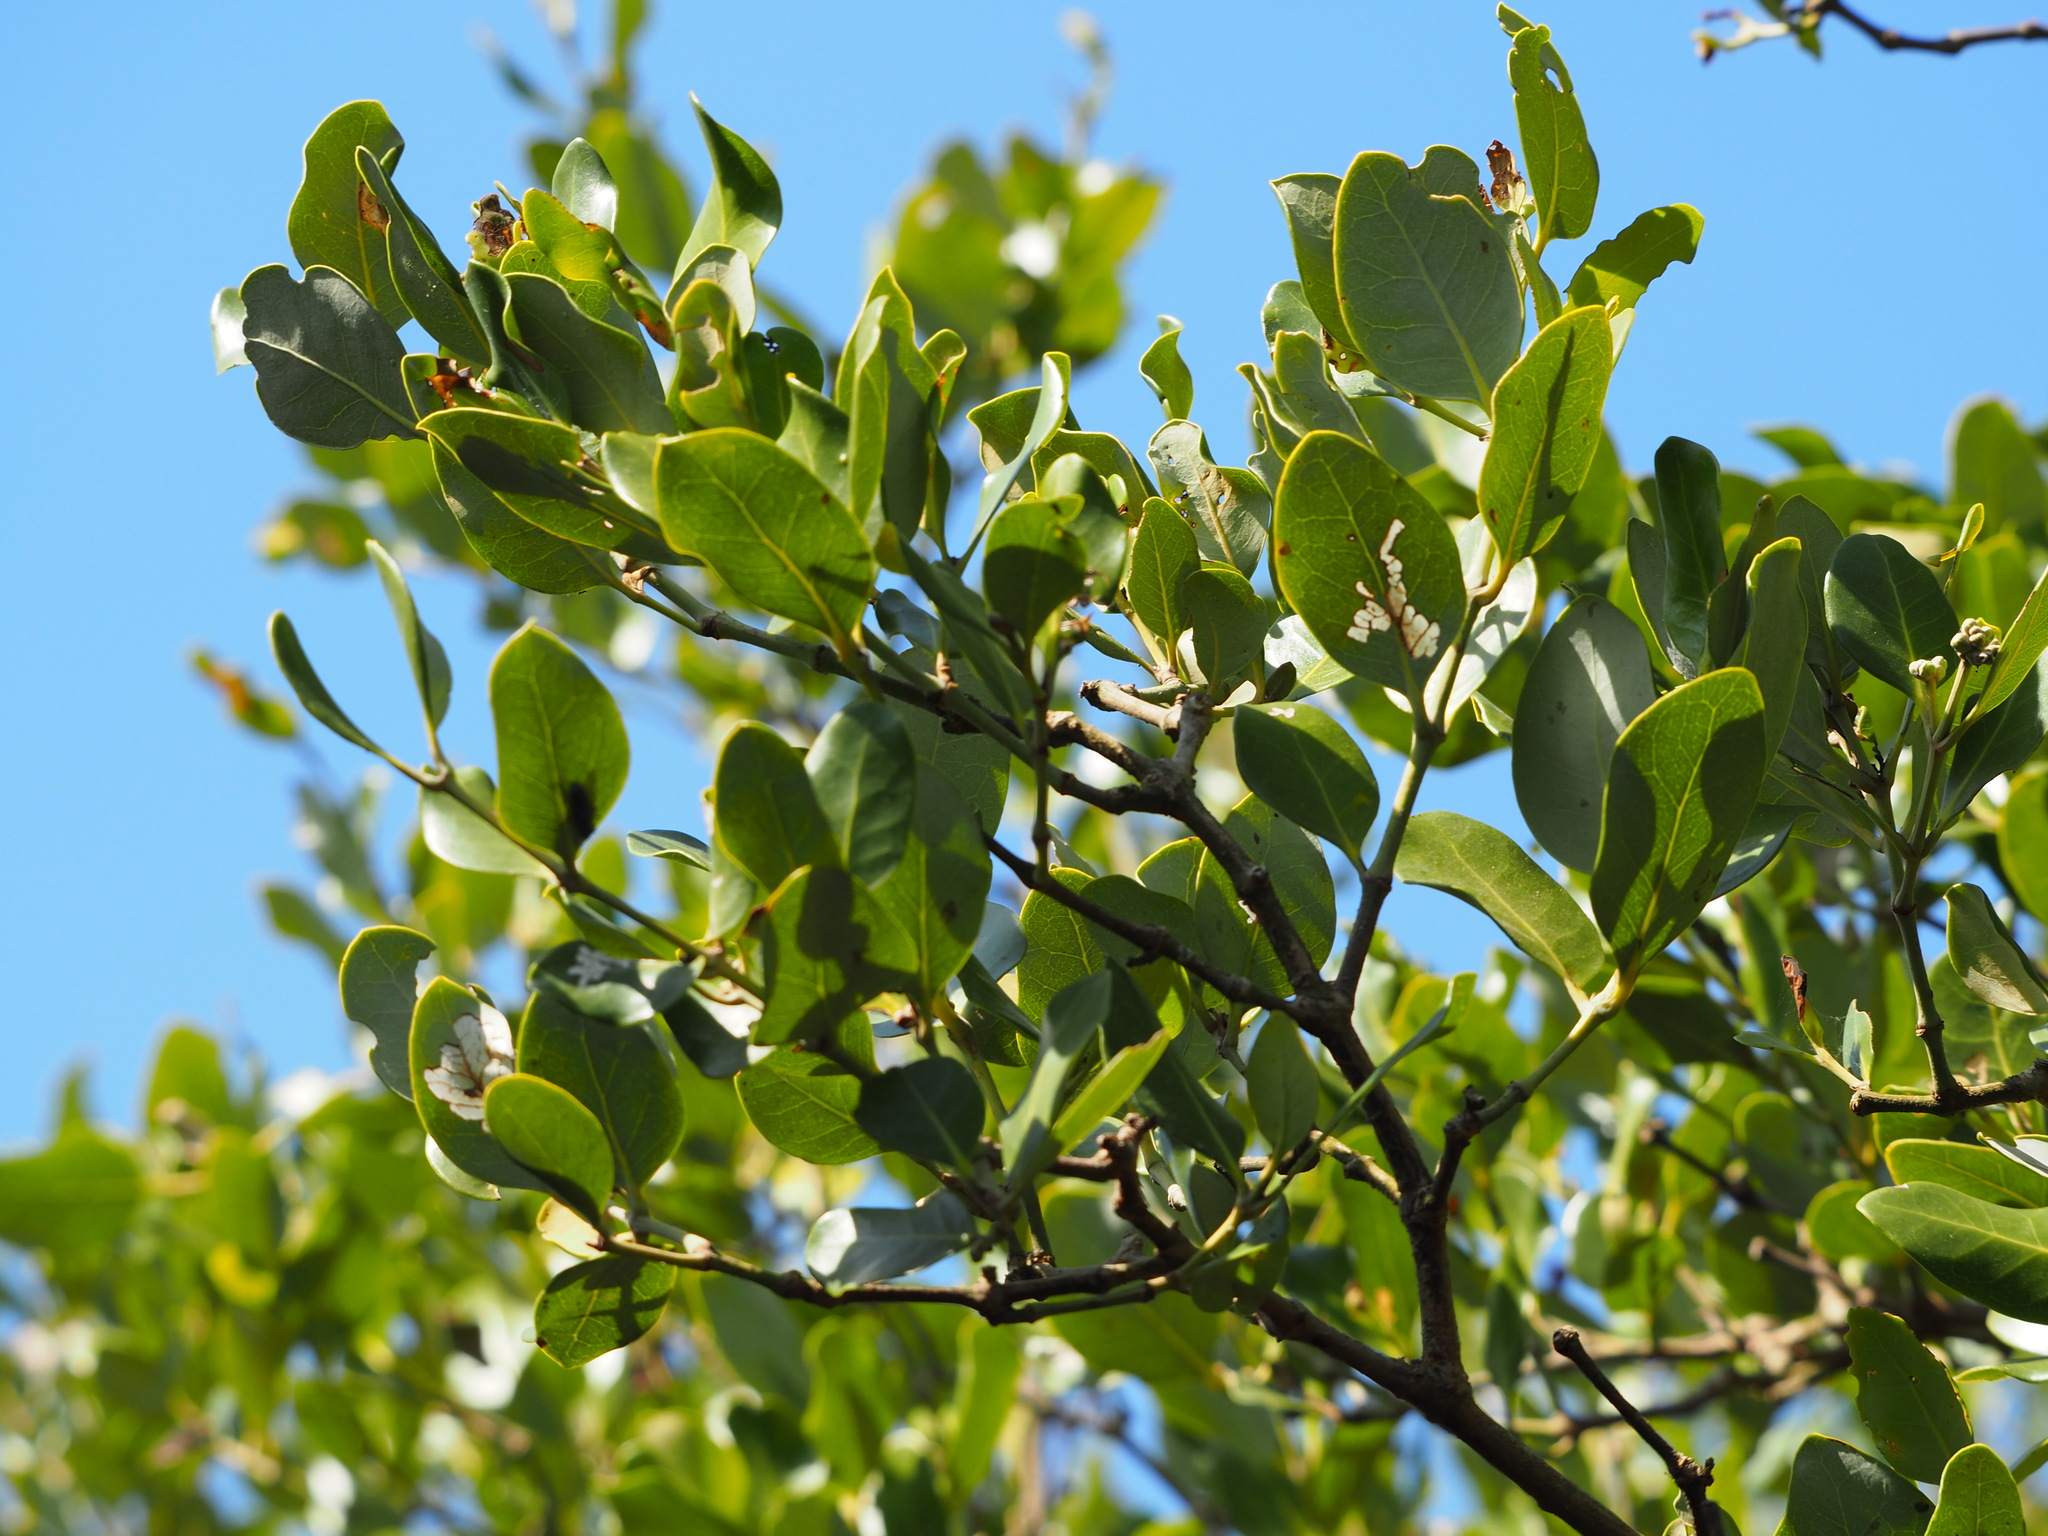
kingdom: Plantae
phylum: Tracheophyta
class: Magnoliopsida
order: Lamiales
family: Acanthaceae
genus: Avicennia
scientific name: Avicennia marina
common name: Gray mangrove
